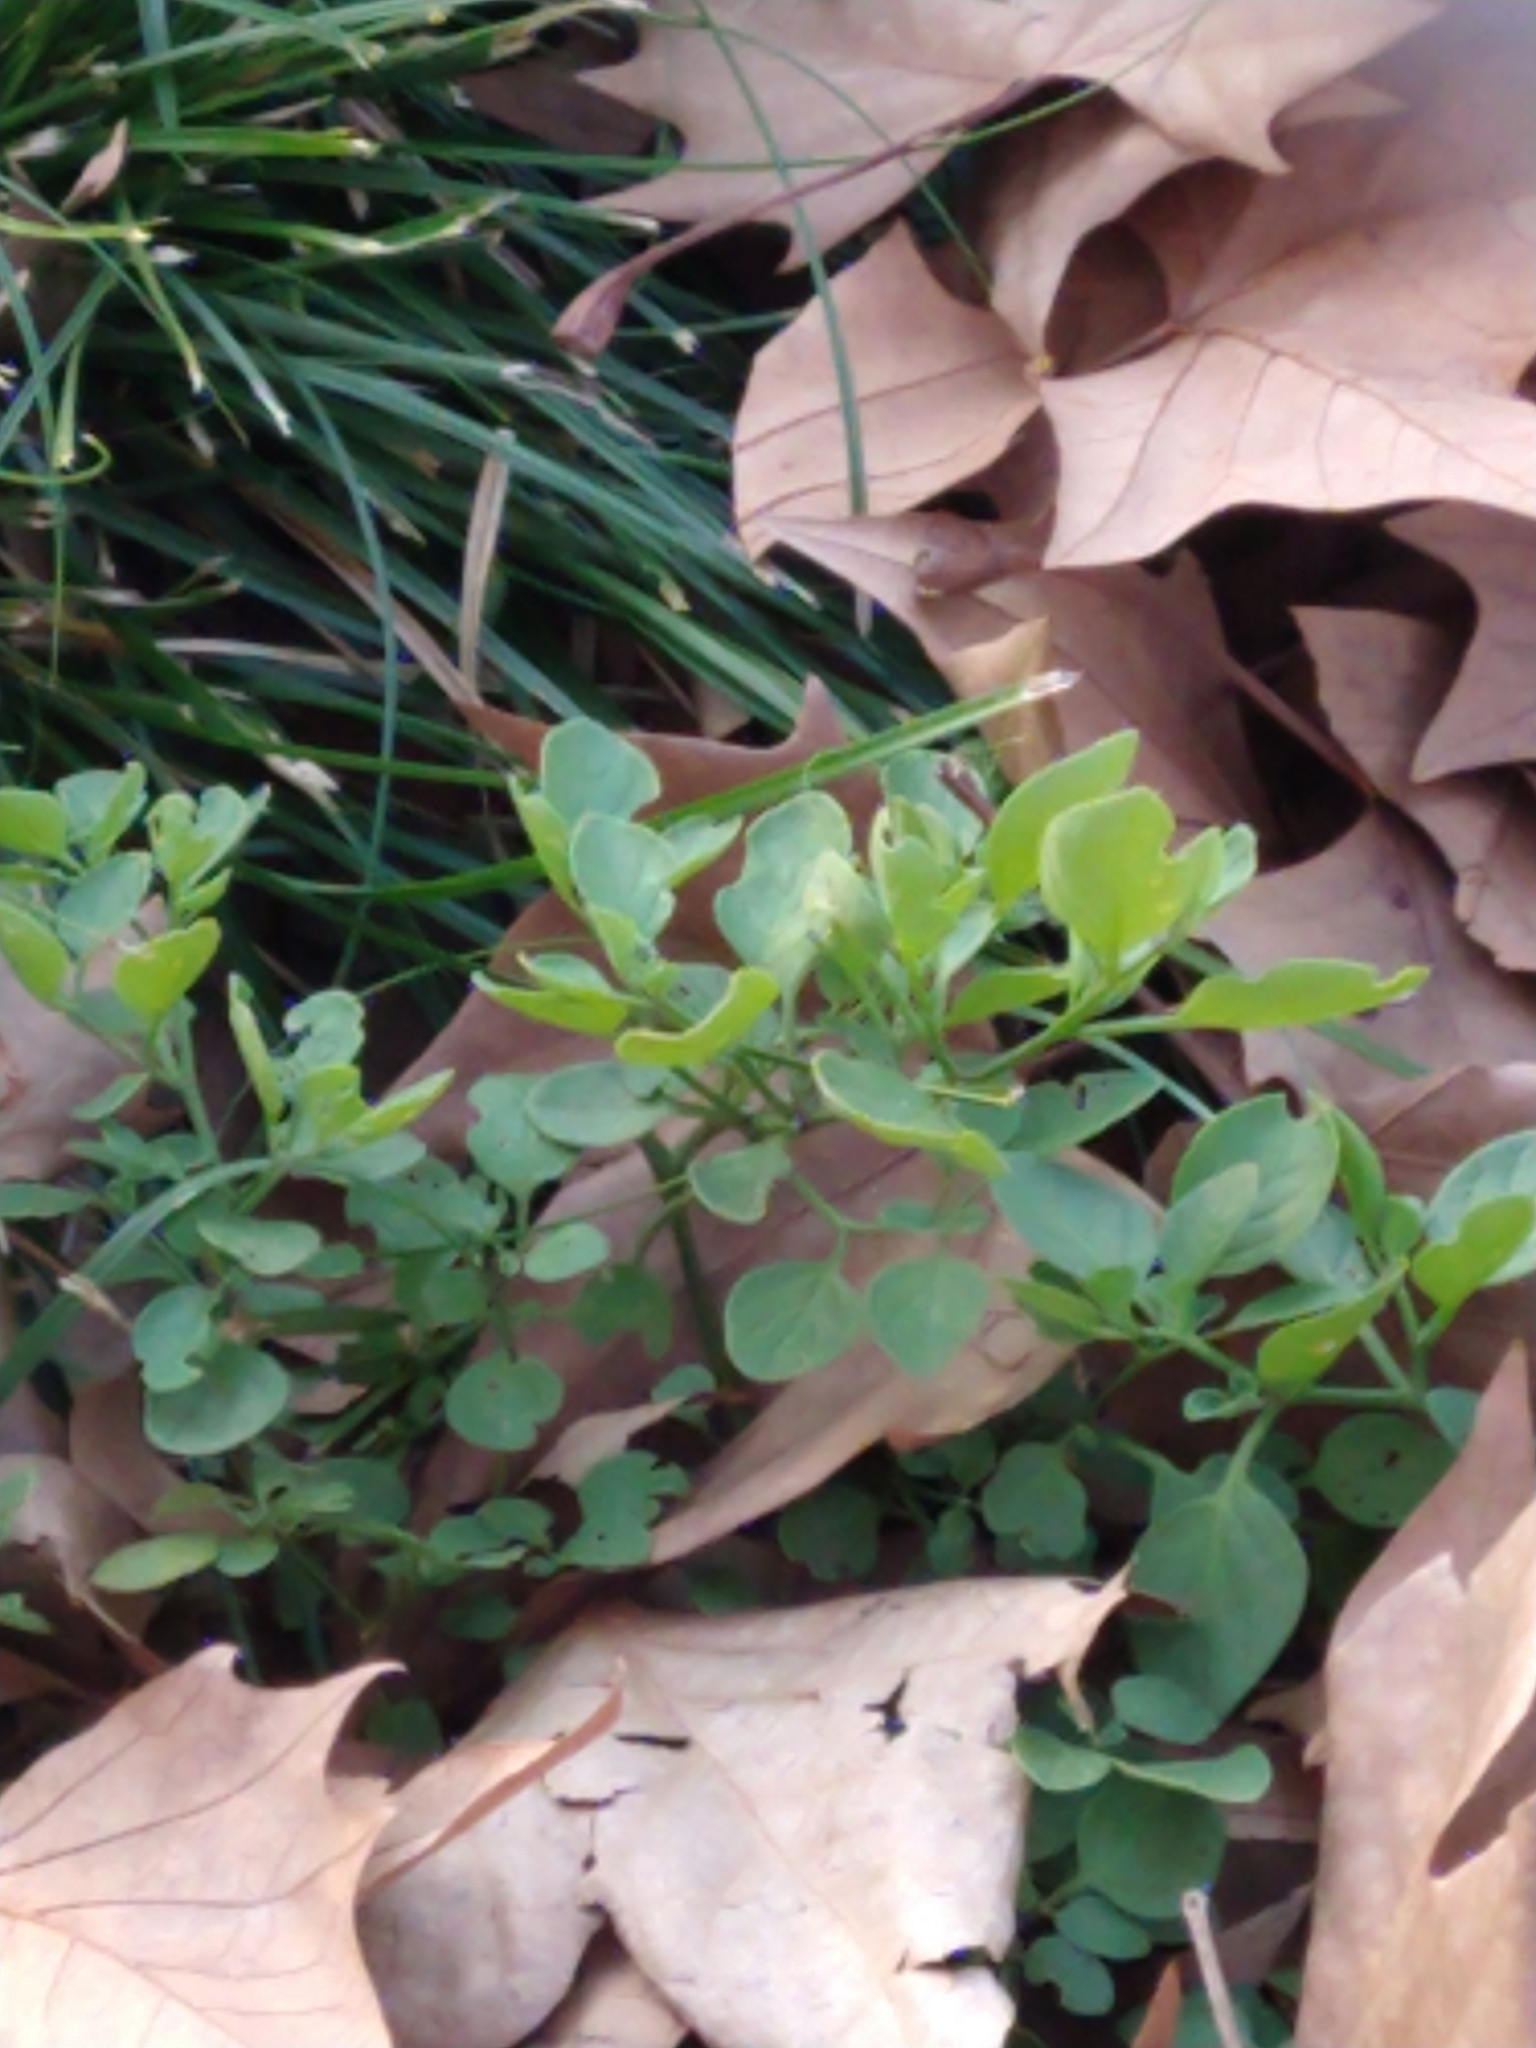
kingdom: Plantae
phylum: Tracheophyta
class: Magnoliopsida
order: Solanales
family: Solanaceae
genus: Salpichroa
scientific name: Salpichroa origanifolia
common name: Lily-of-the-valley-vine
